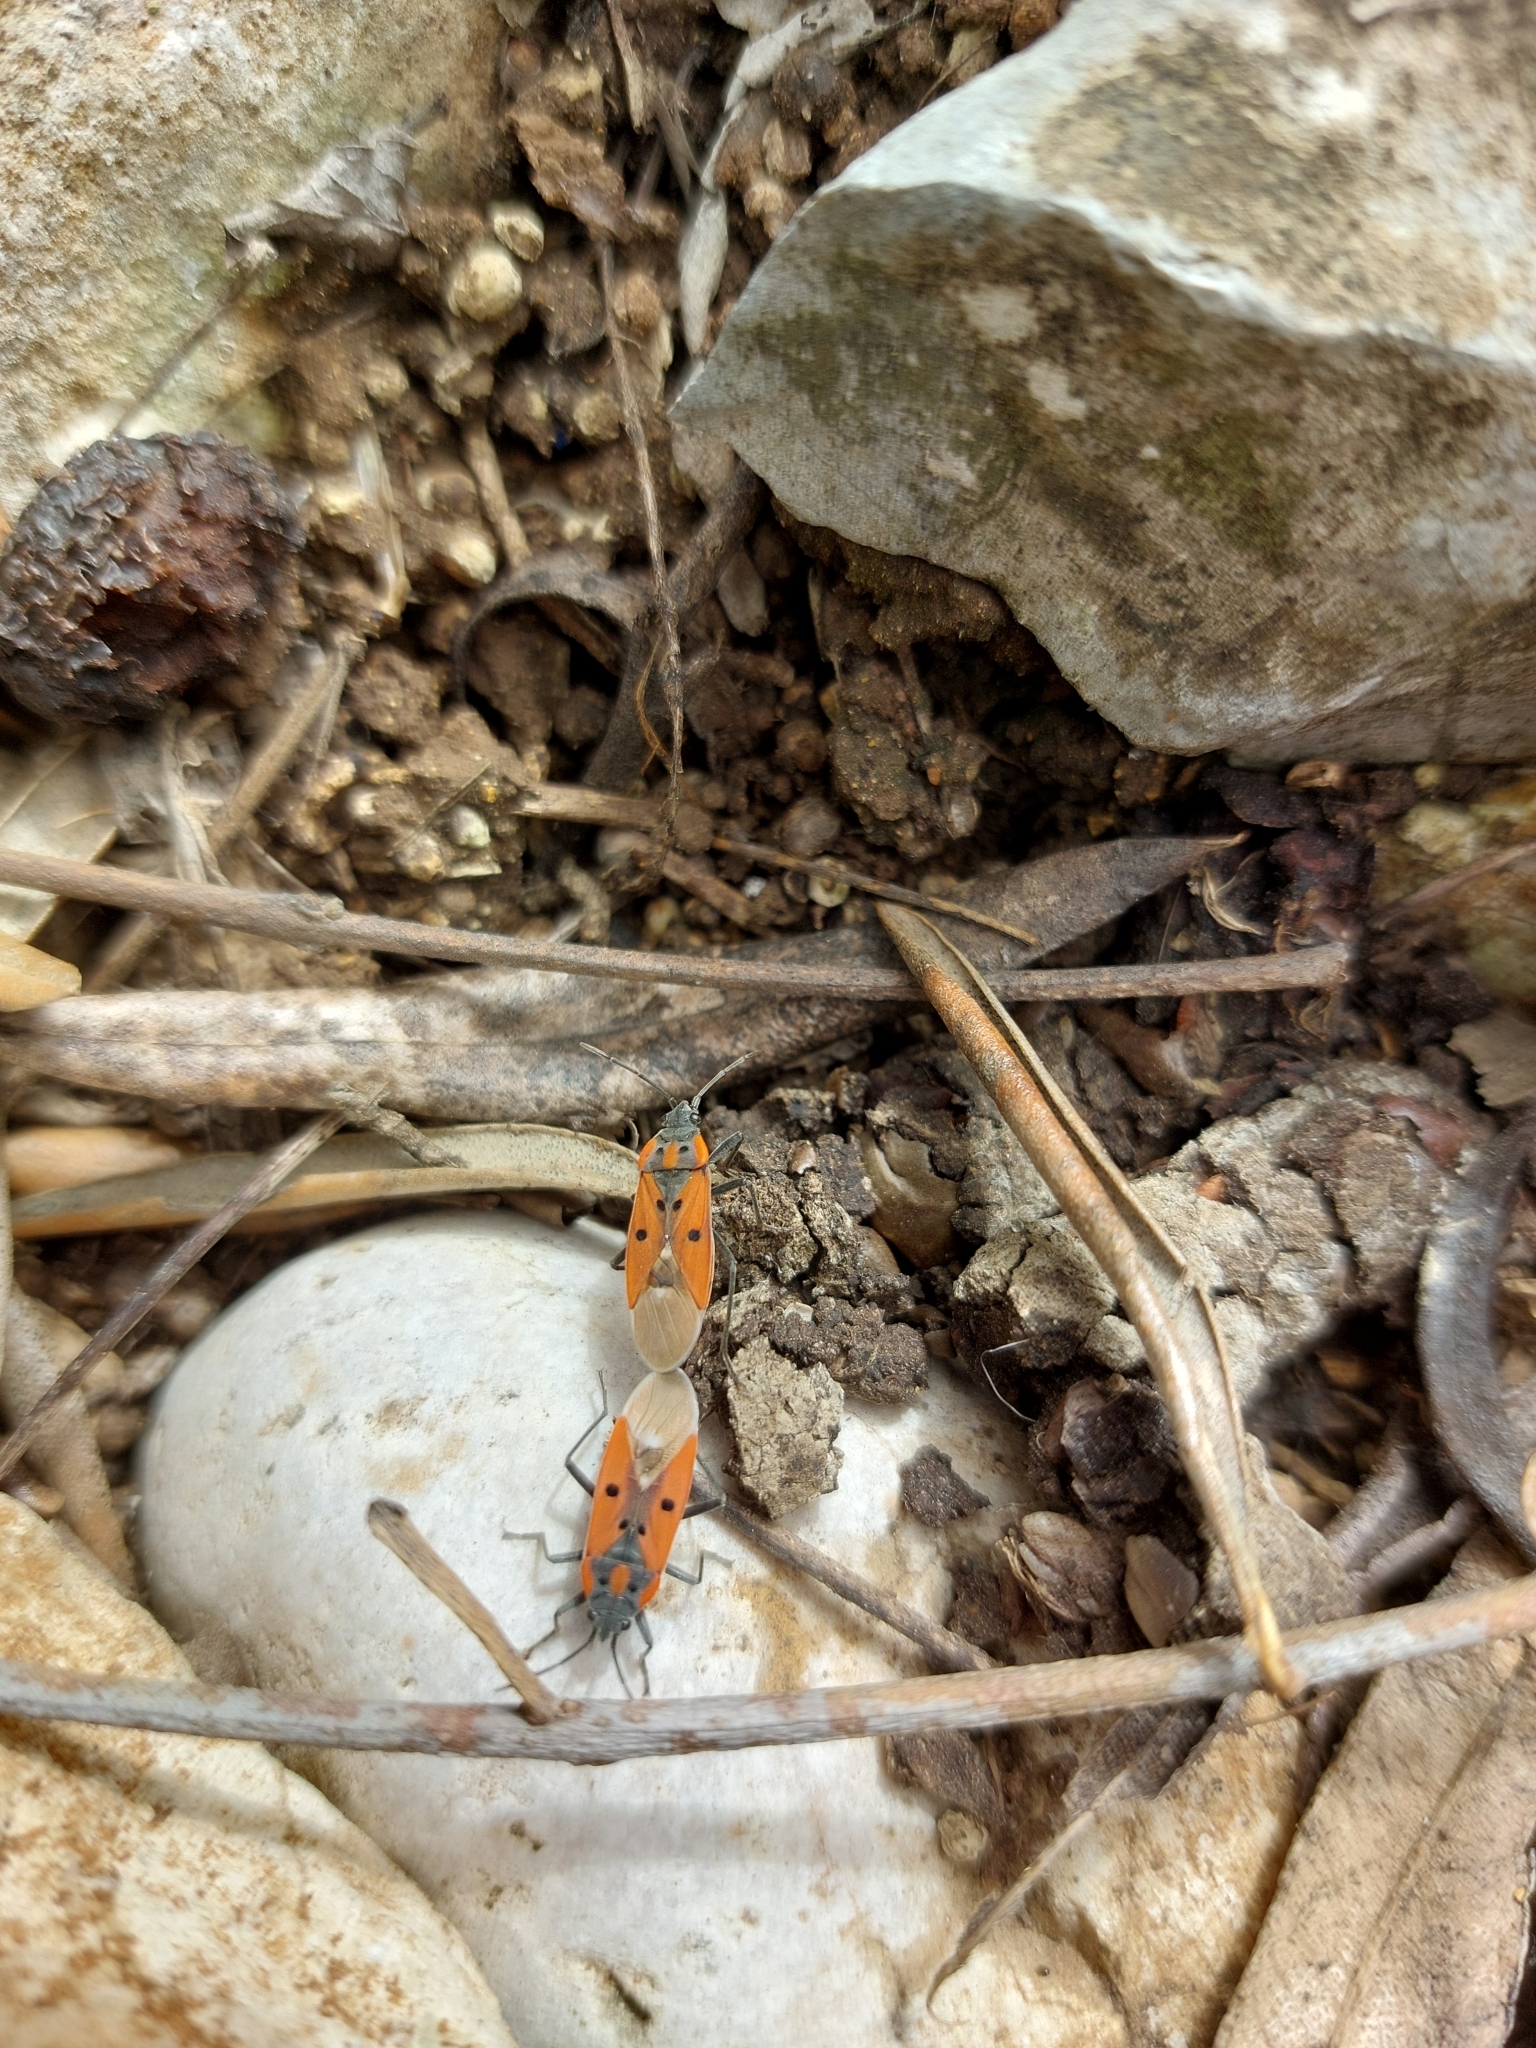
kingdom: Animalia
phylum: Arthropoda
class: Insecta
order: Hemiptera
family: Lygaeidae
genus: Lygaeus
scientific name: Lygaeus creticus
